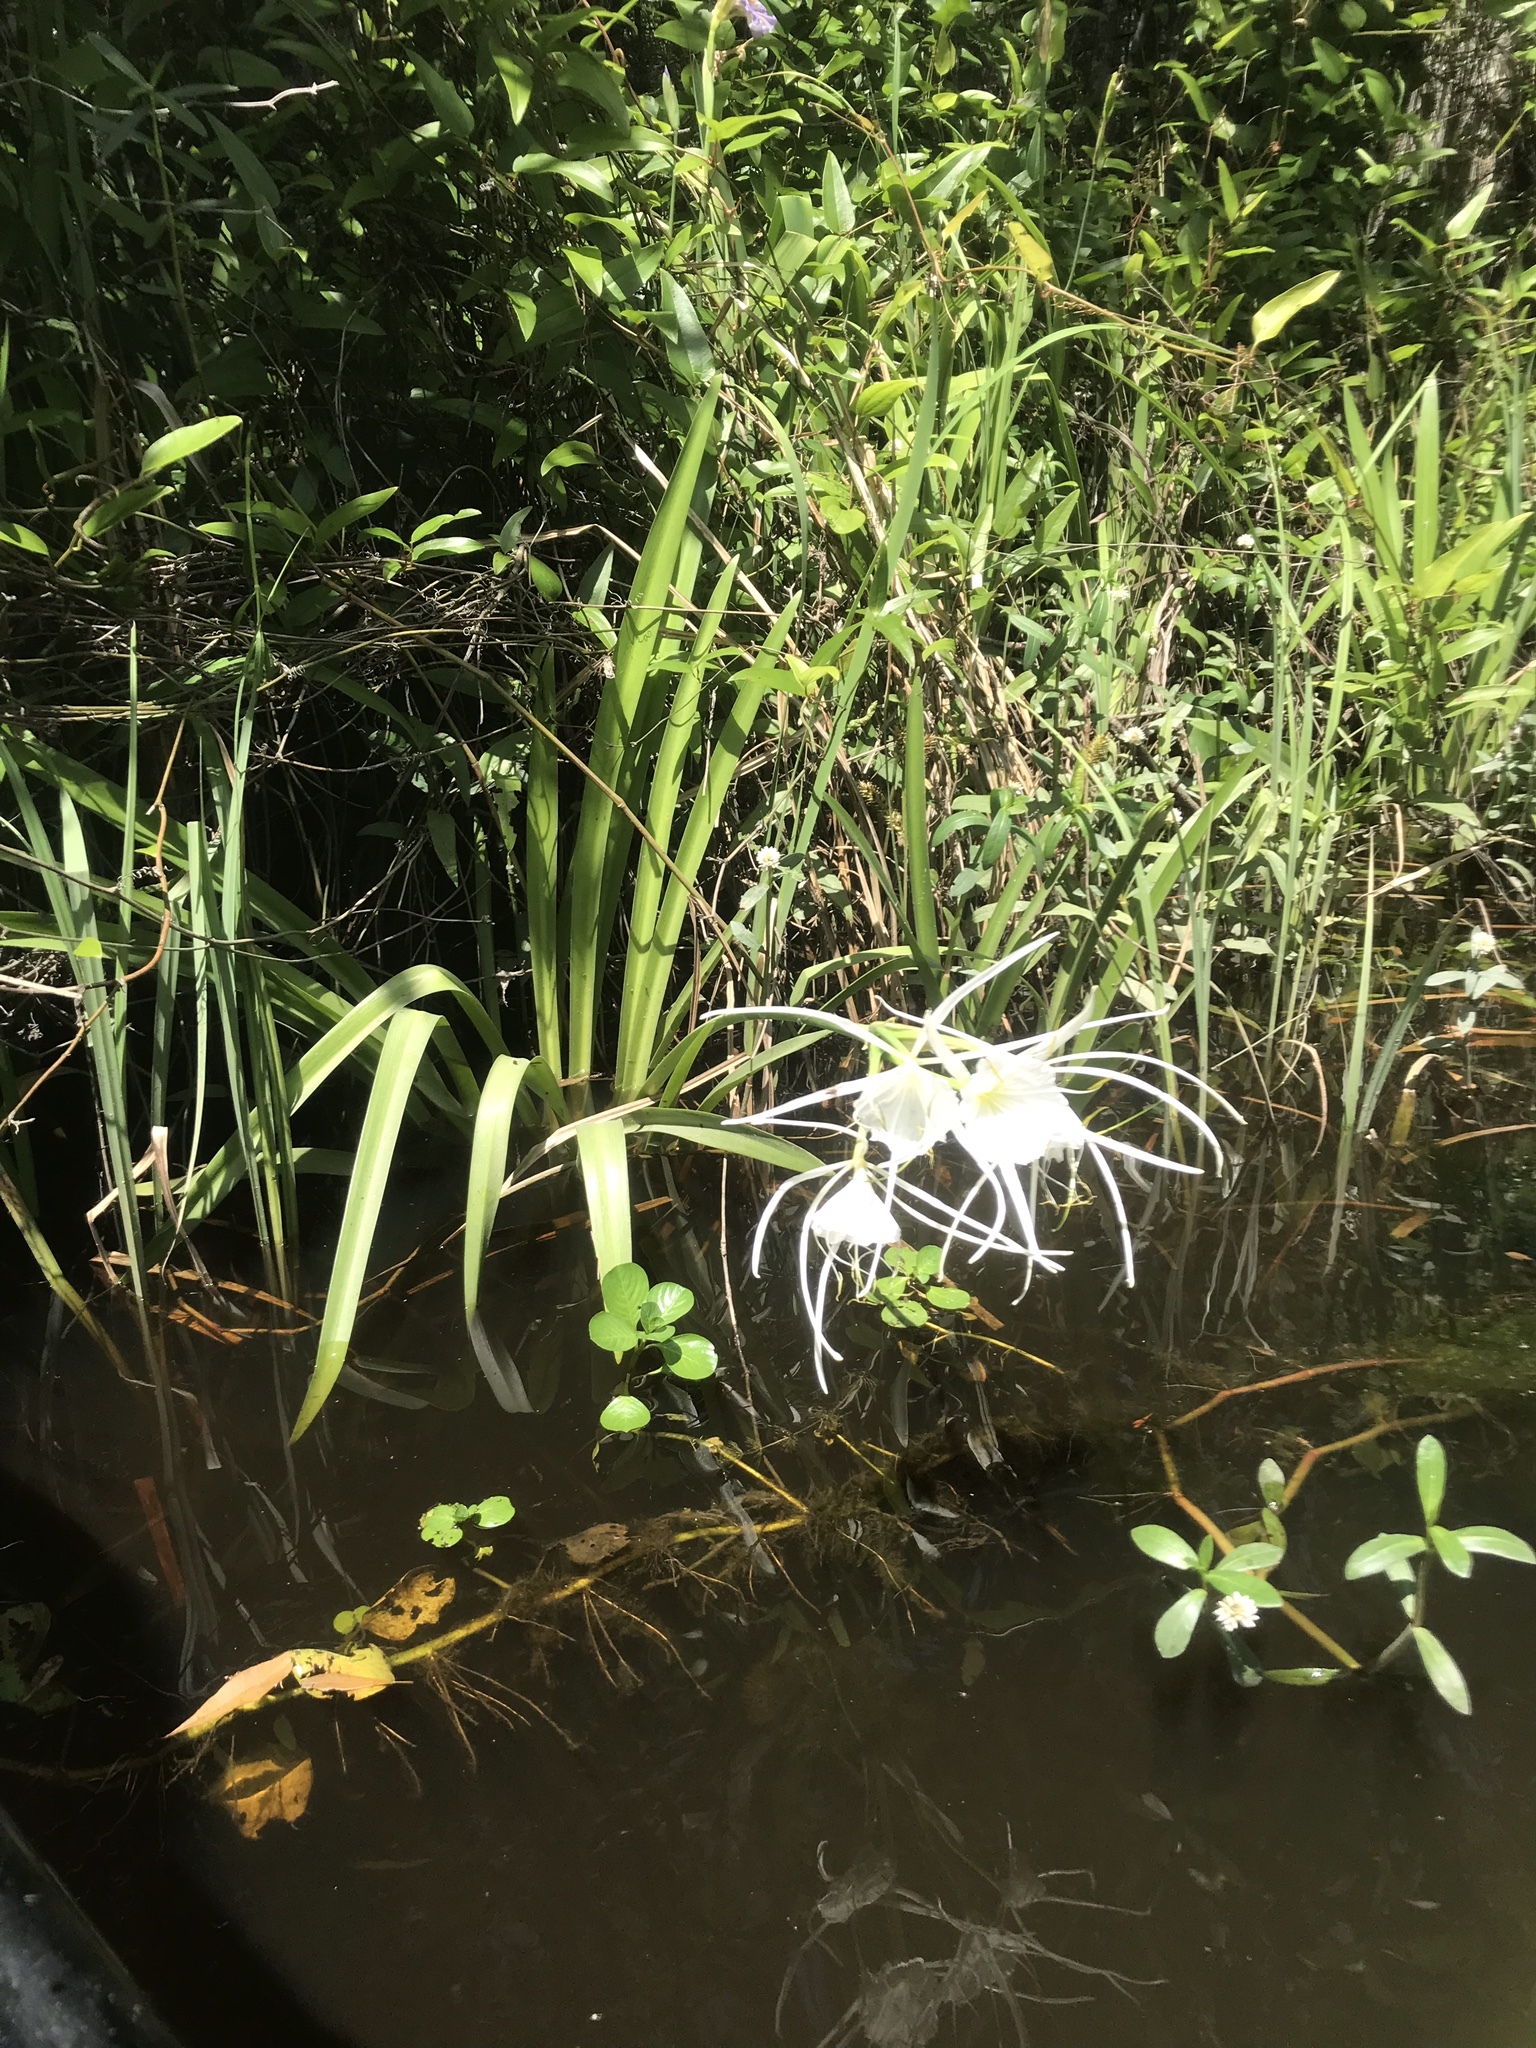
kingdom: Plantae
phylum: Tracheophyta
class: Liliopsida
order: Asparagales
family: Amaryllidaceae
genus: Hymenocallis
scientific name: Hymenocallis liriosme
